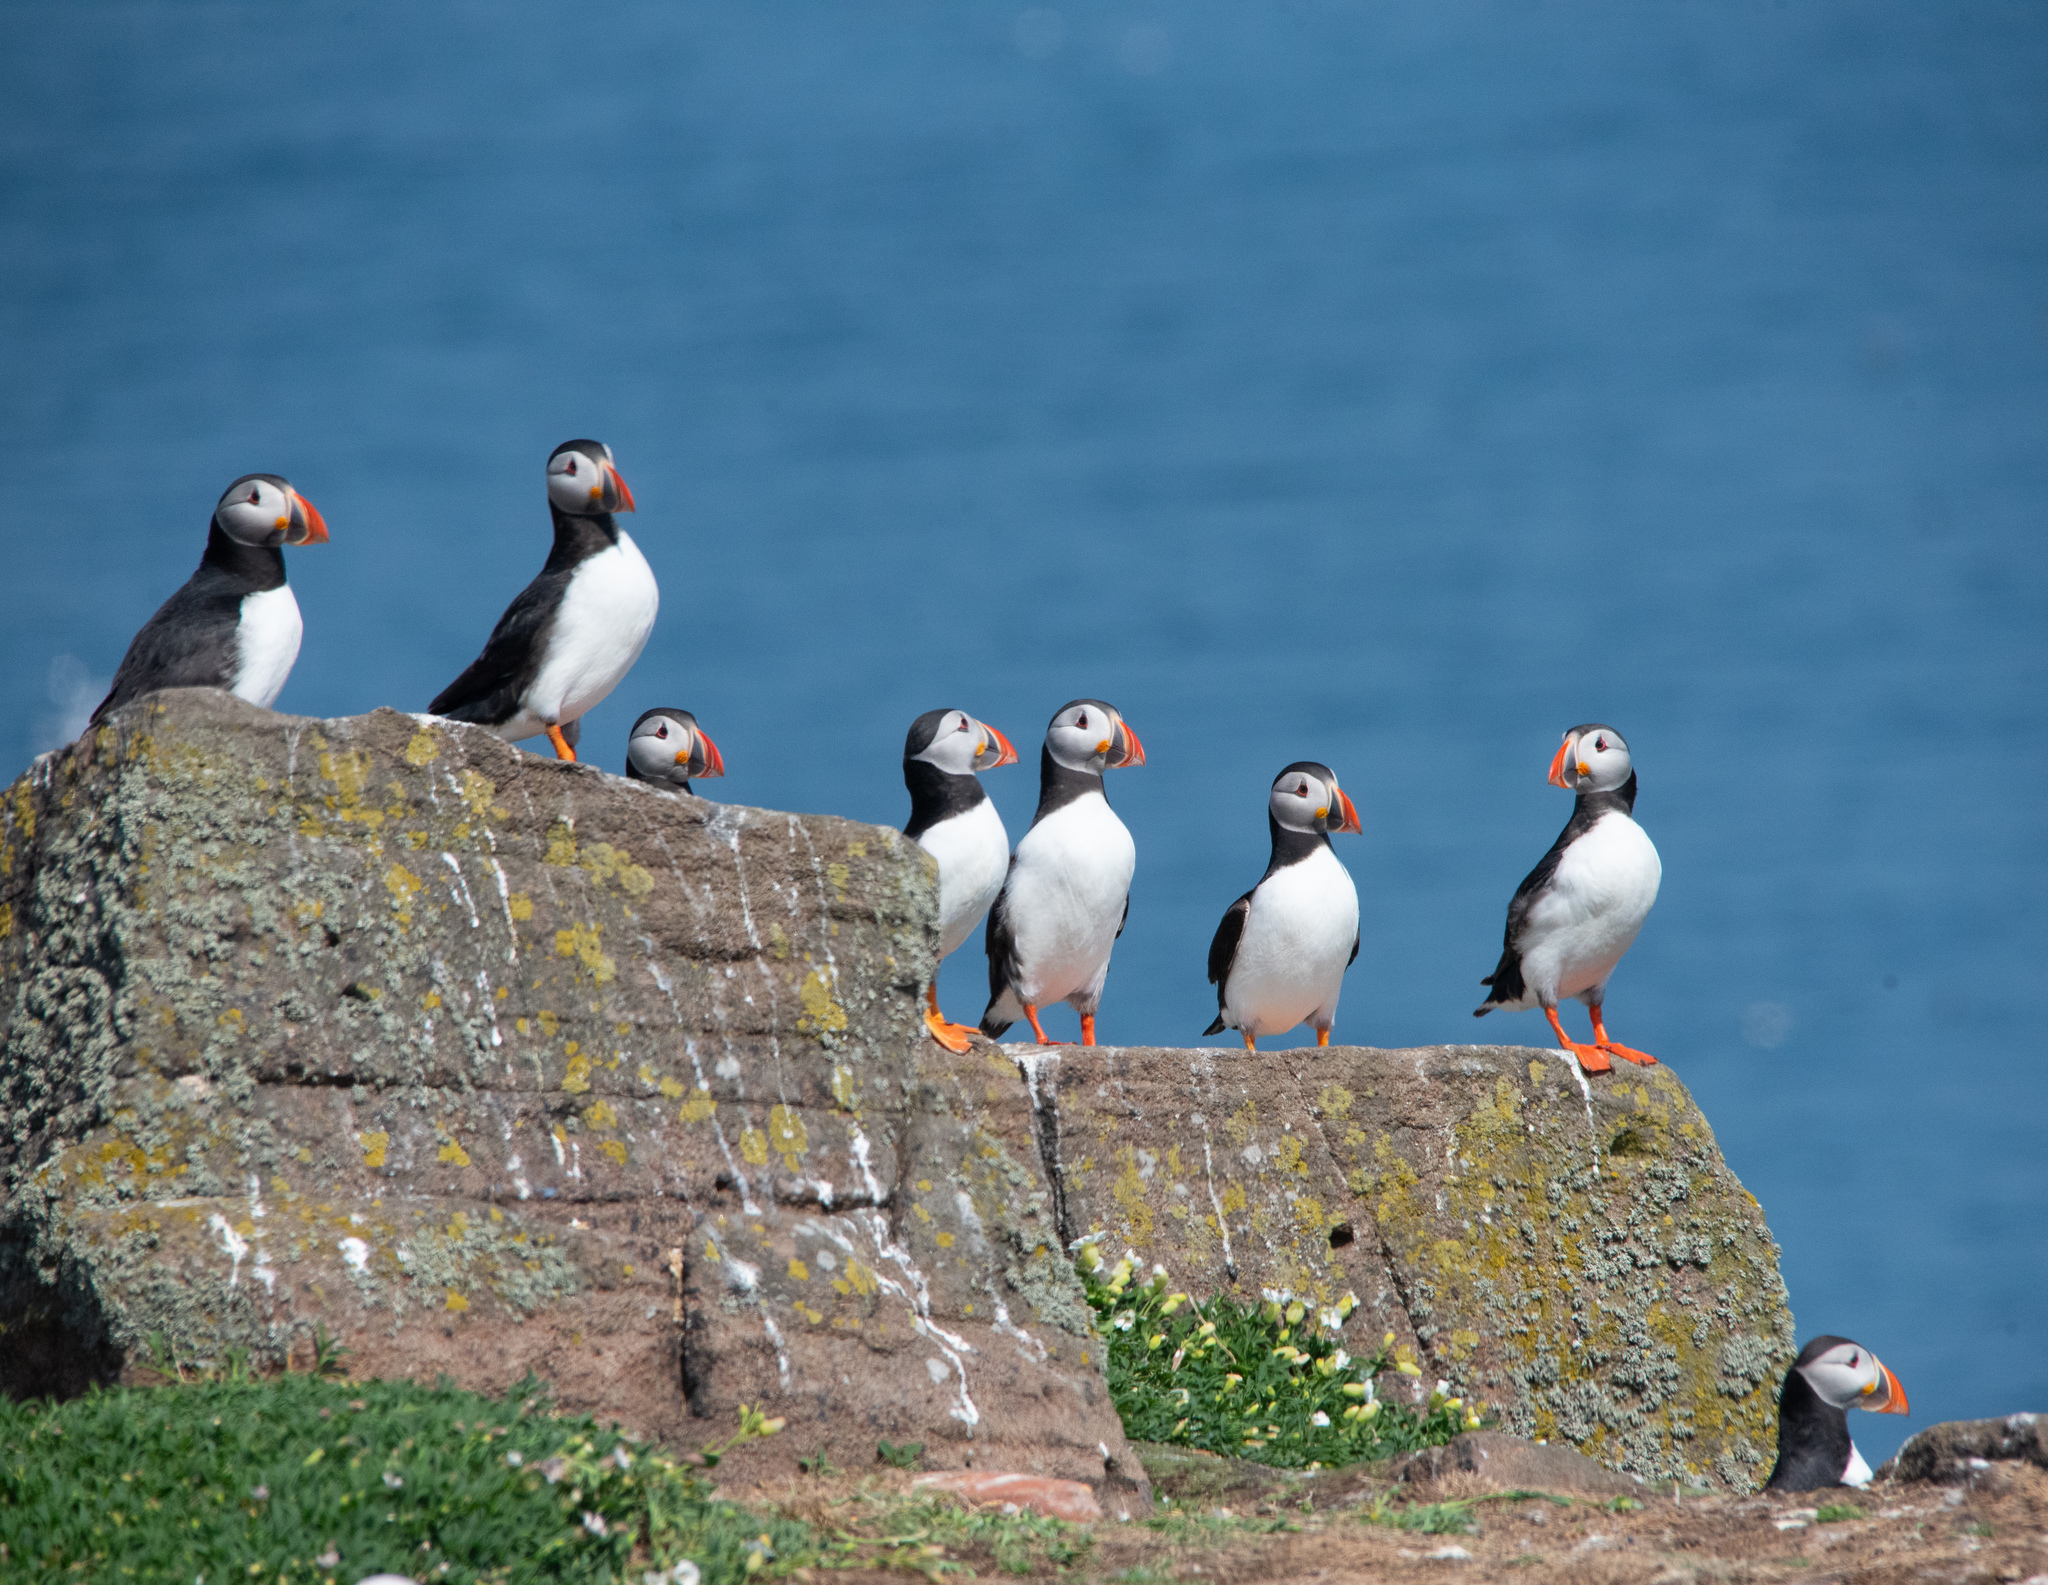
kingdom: Animalia
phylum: Chordata
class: Aves
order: Charadriiformes
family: Alcidae
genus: Fratercula
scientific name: Fratercula arctica
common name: Atlantic puffin
